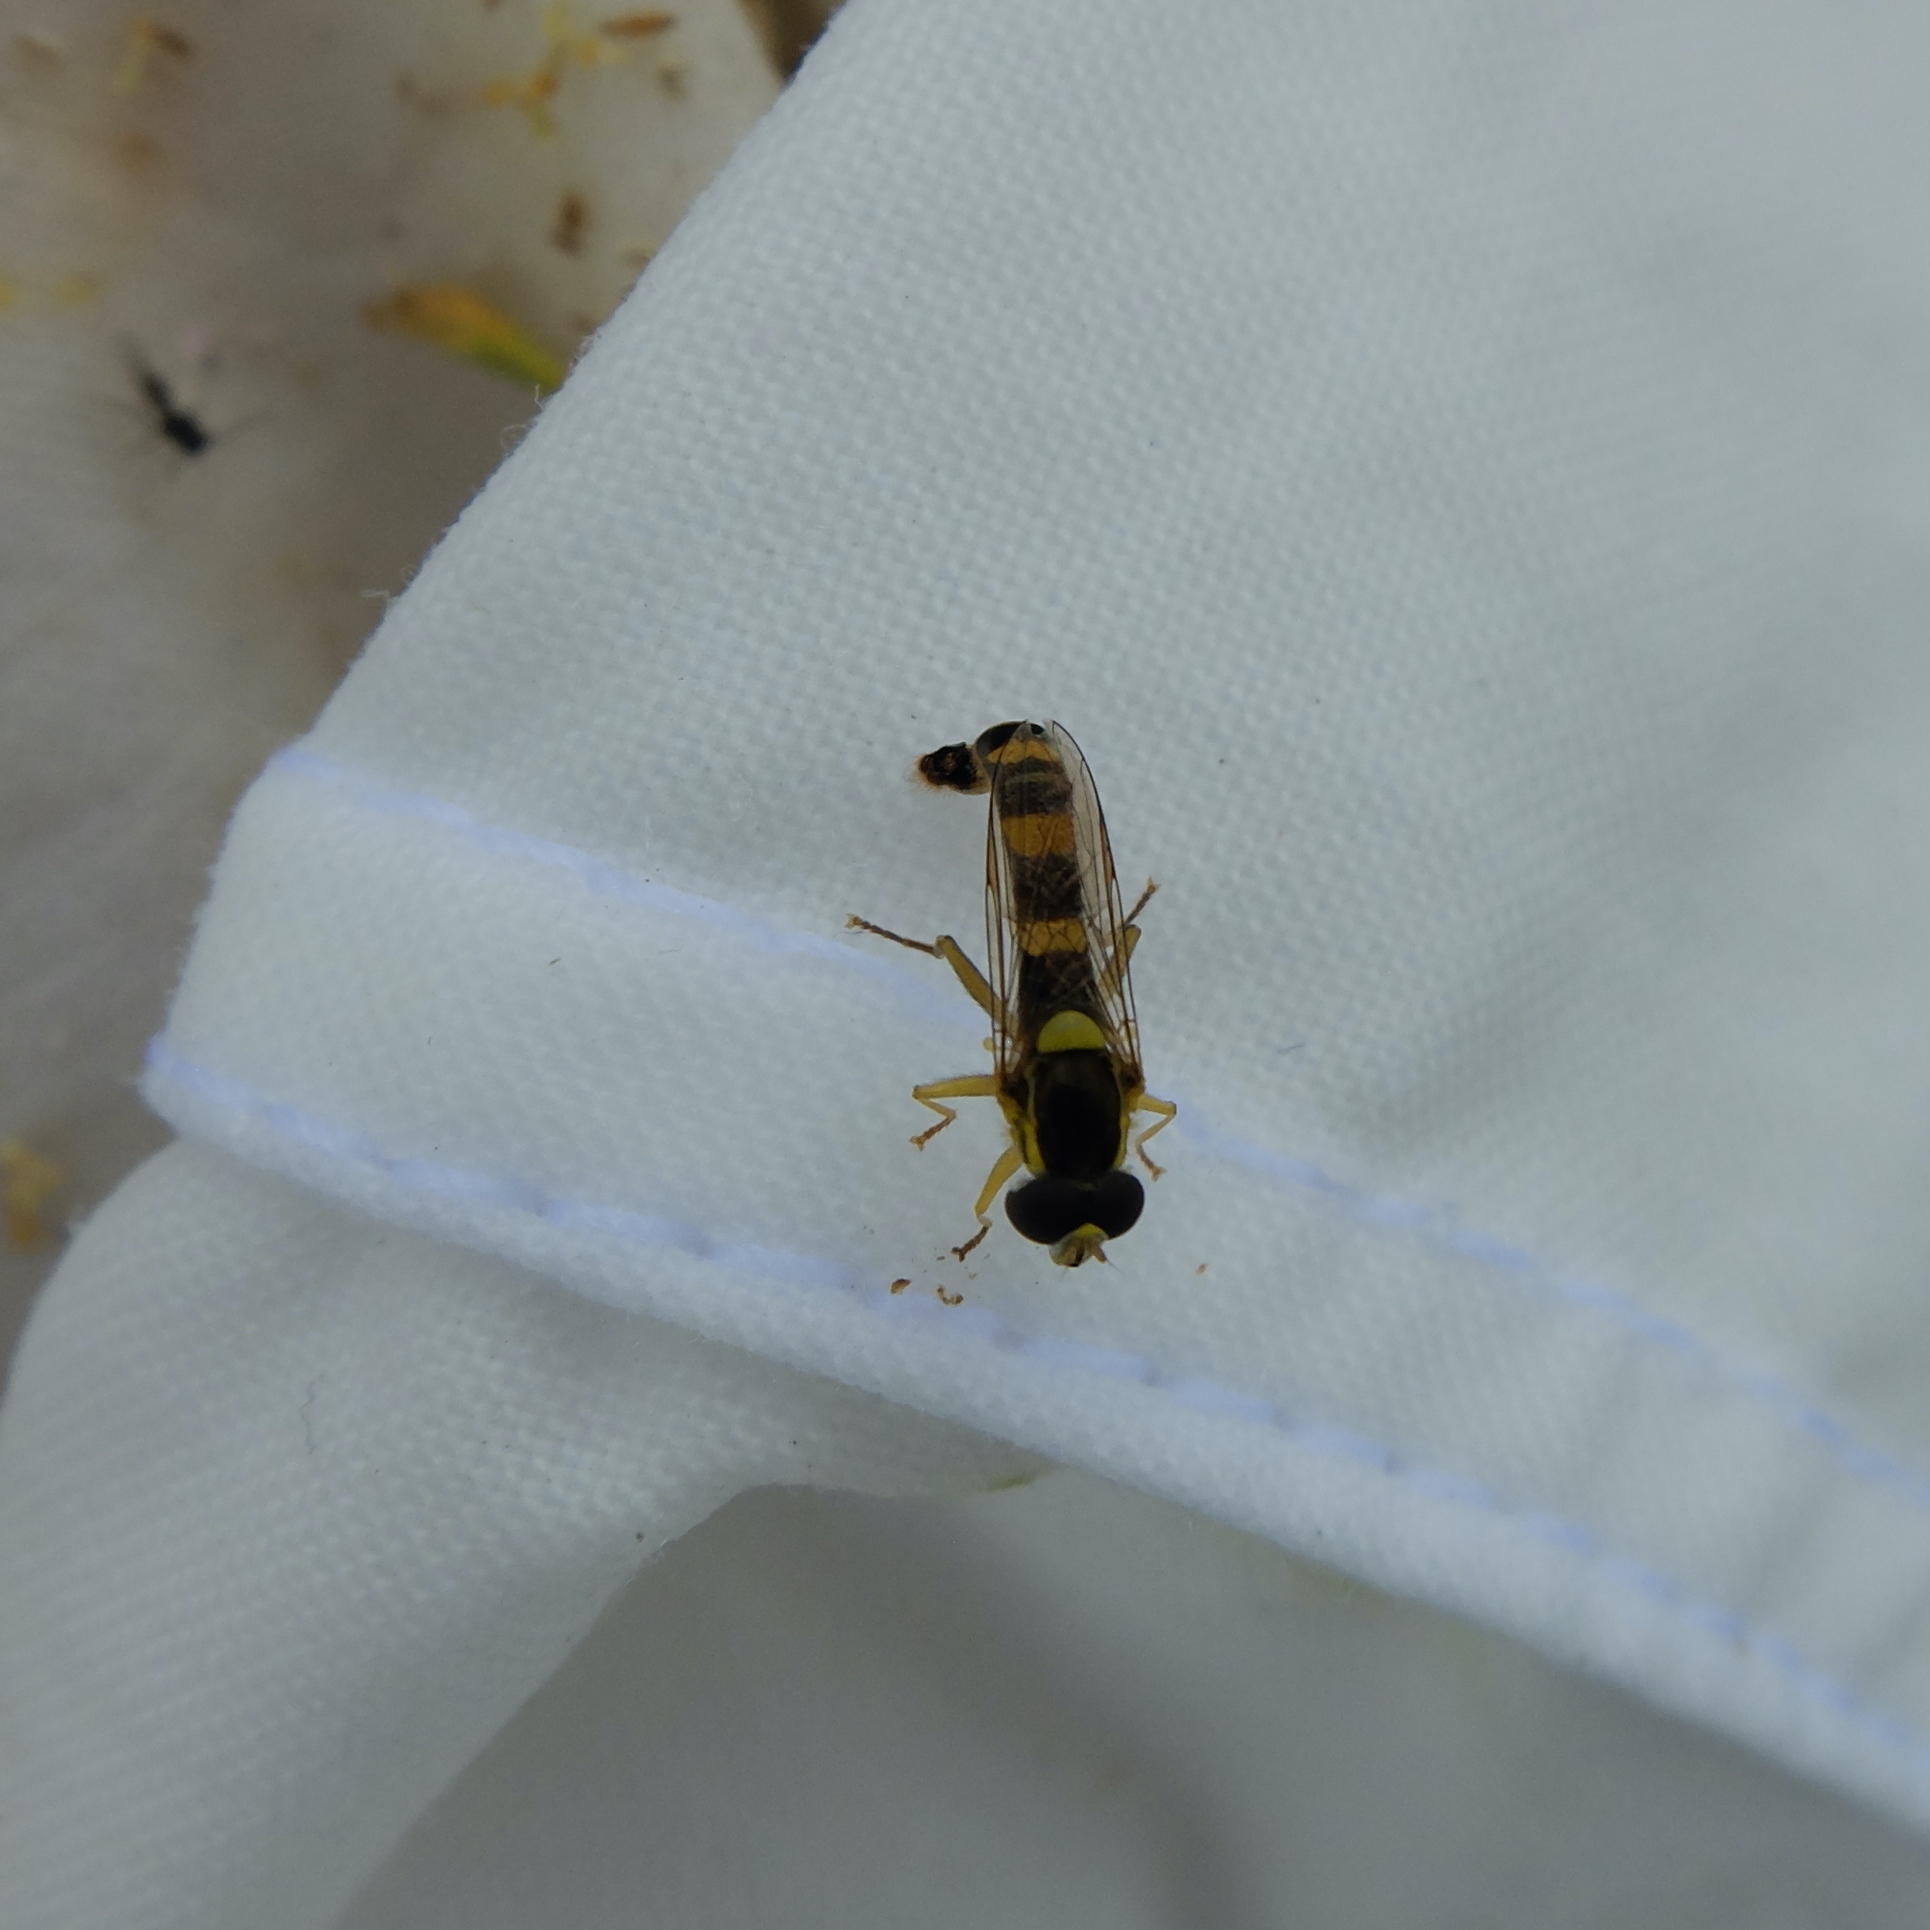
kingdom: Animalia
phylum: Arthropoda
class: Insecta
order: Diptera
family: Syrphidae
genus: Sphaerophoria
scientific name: Sphaerophoria scripta
